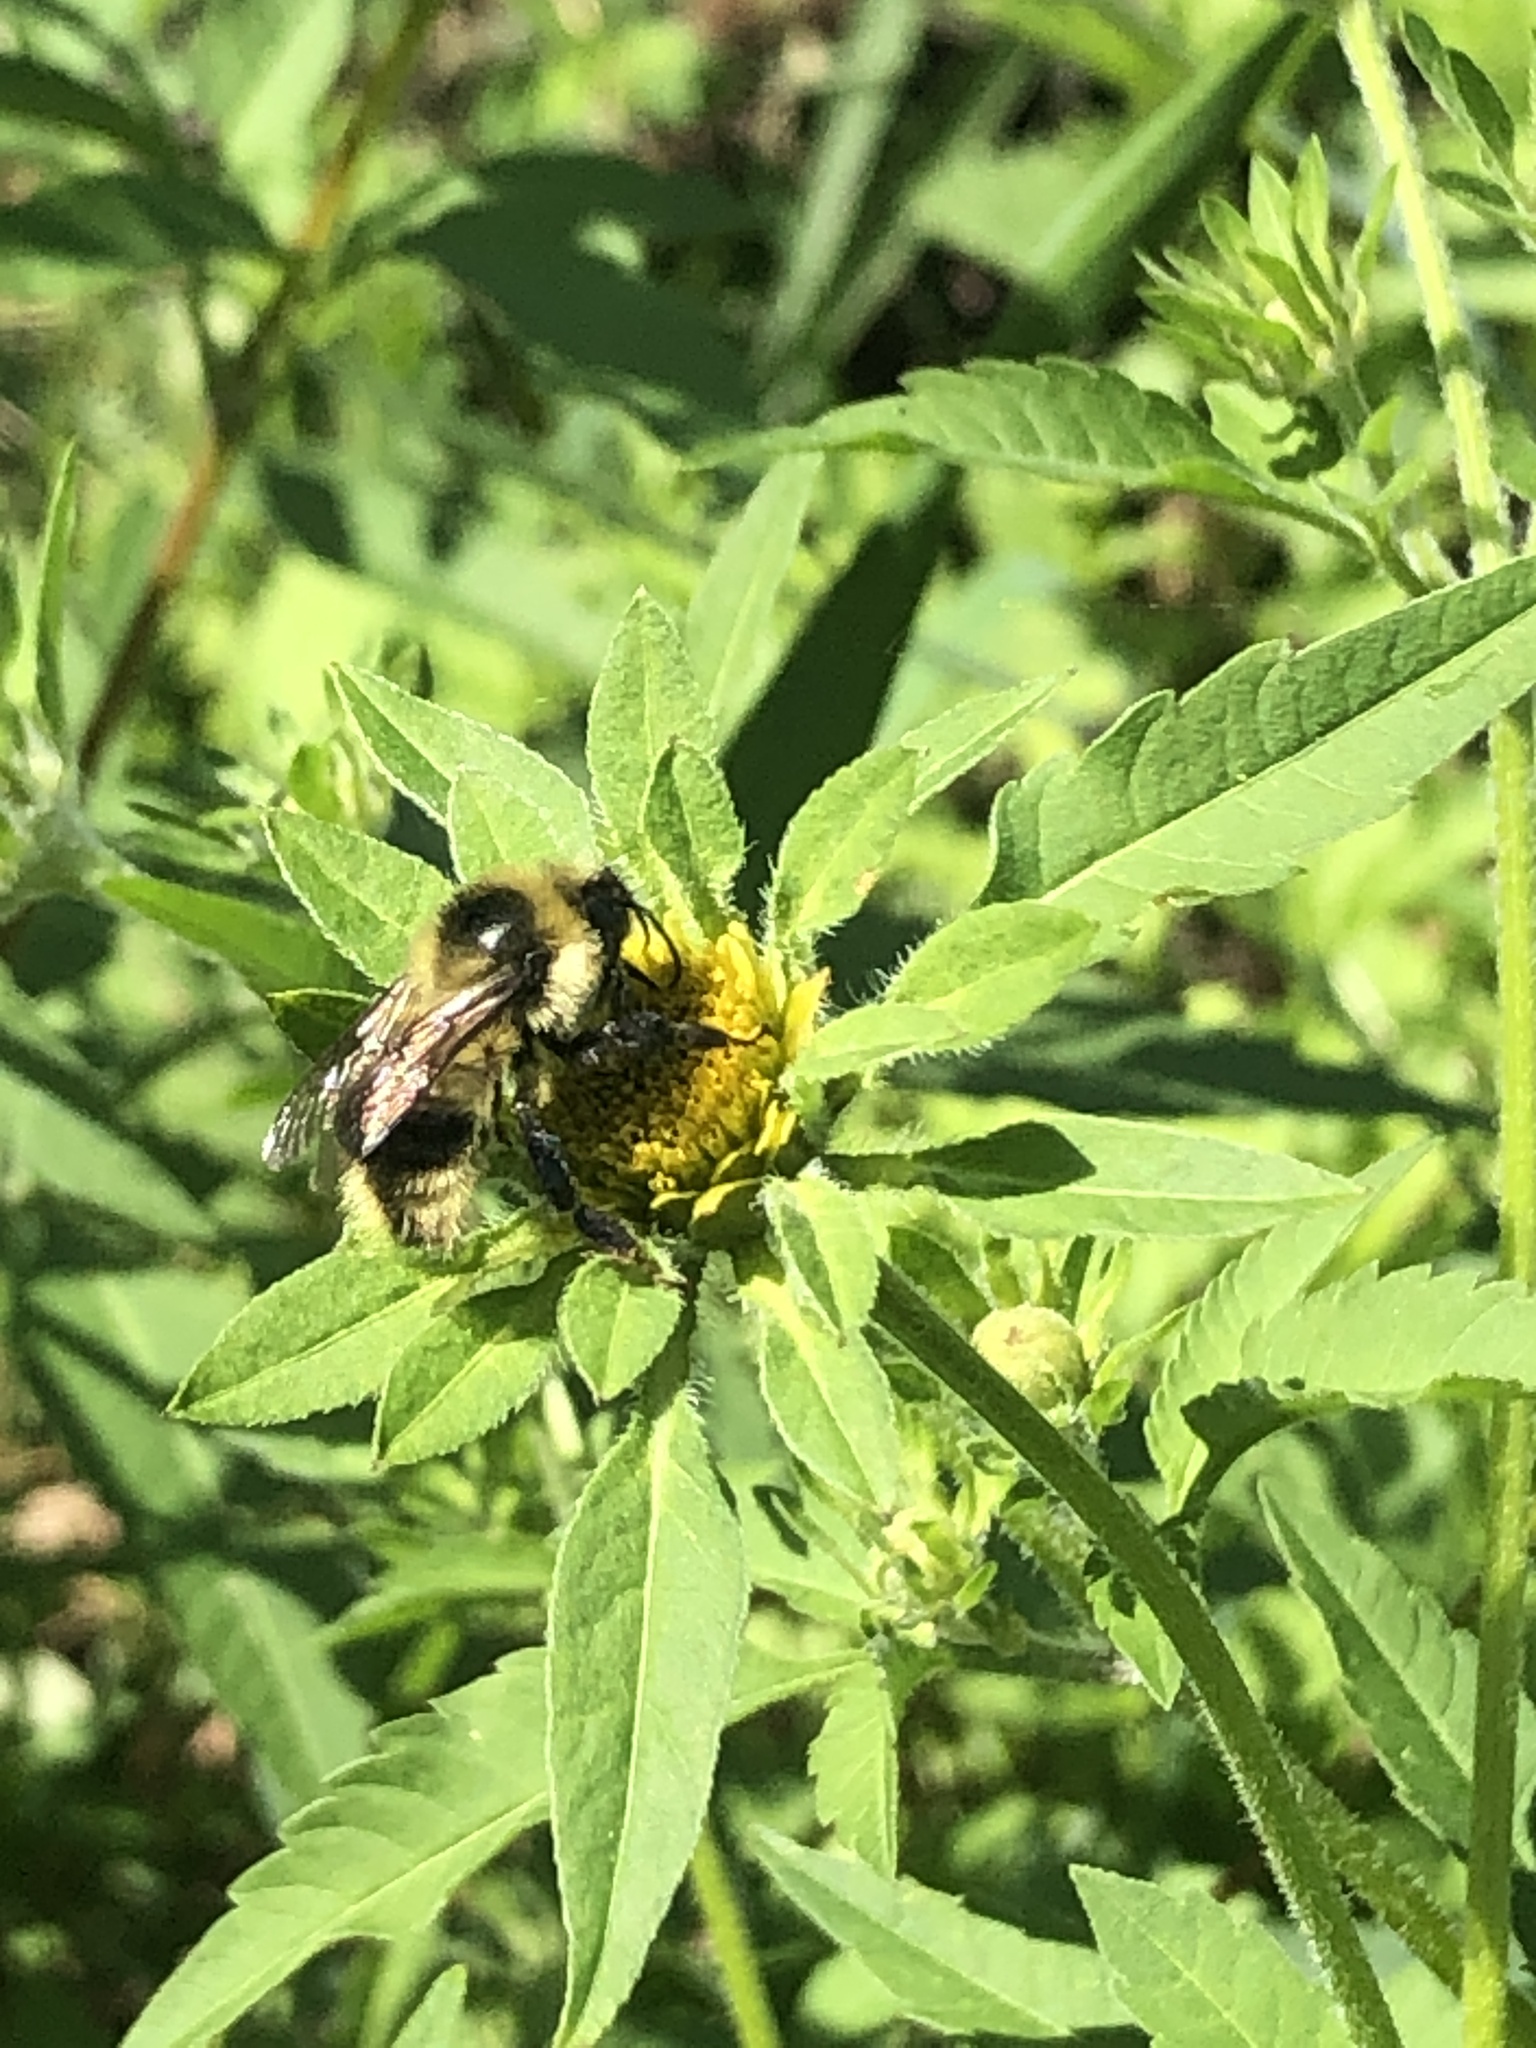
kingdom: Animalia
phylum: Arthropoda
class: Insecta
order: Hymenoptera
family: Apidae
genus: Bombus
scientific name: Bombus rufocinctus
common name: Red-belted bumble bee
